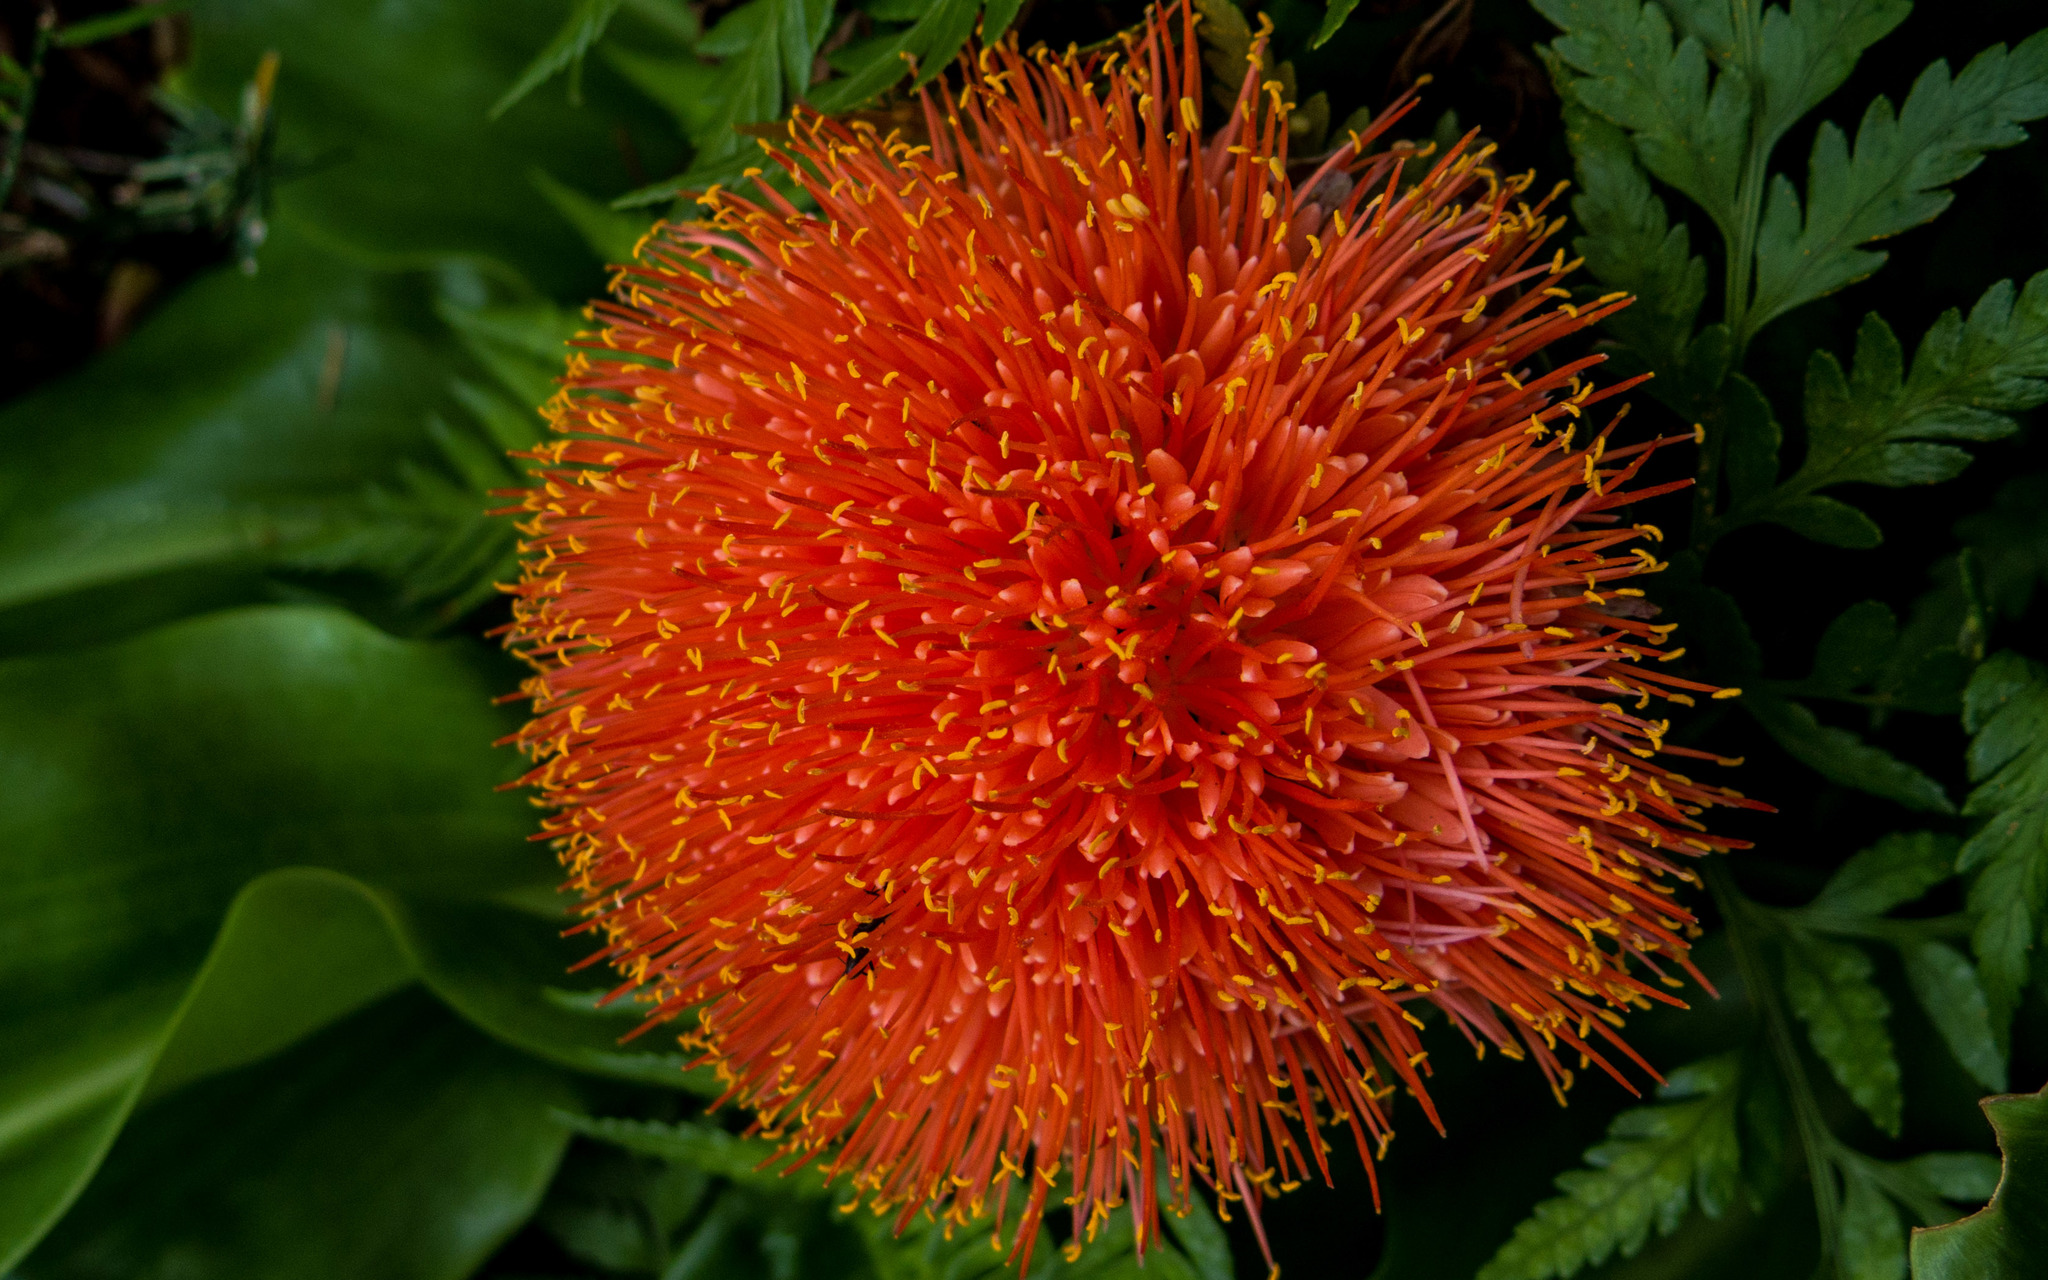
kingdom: Plantae
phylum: Tracheophyta
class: Liliopsida
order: Asparagales
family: Amaryllidaceae
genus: Scadoxus
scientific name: Scadoxus puniceus
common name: Royal-paintbrush
